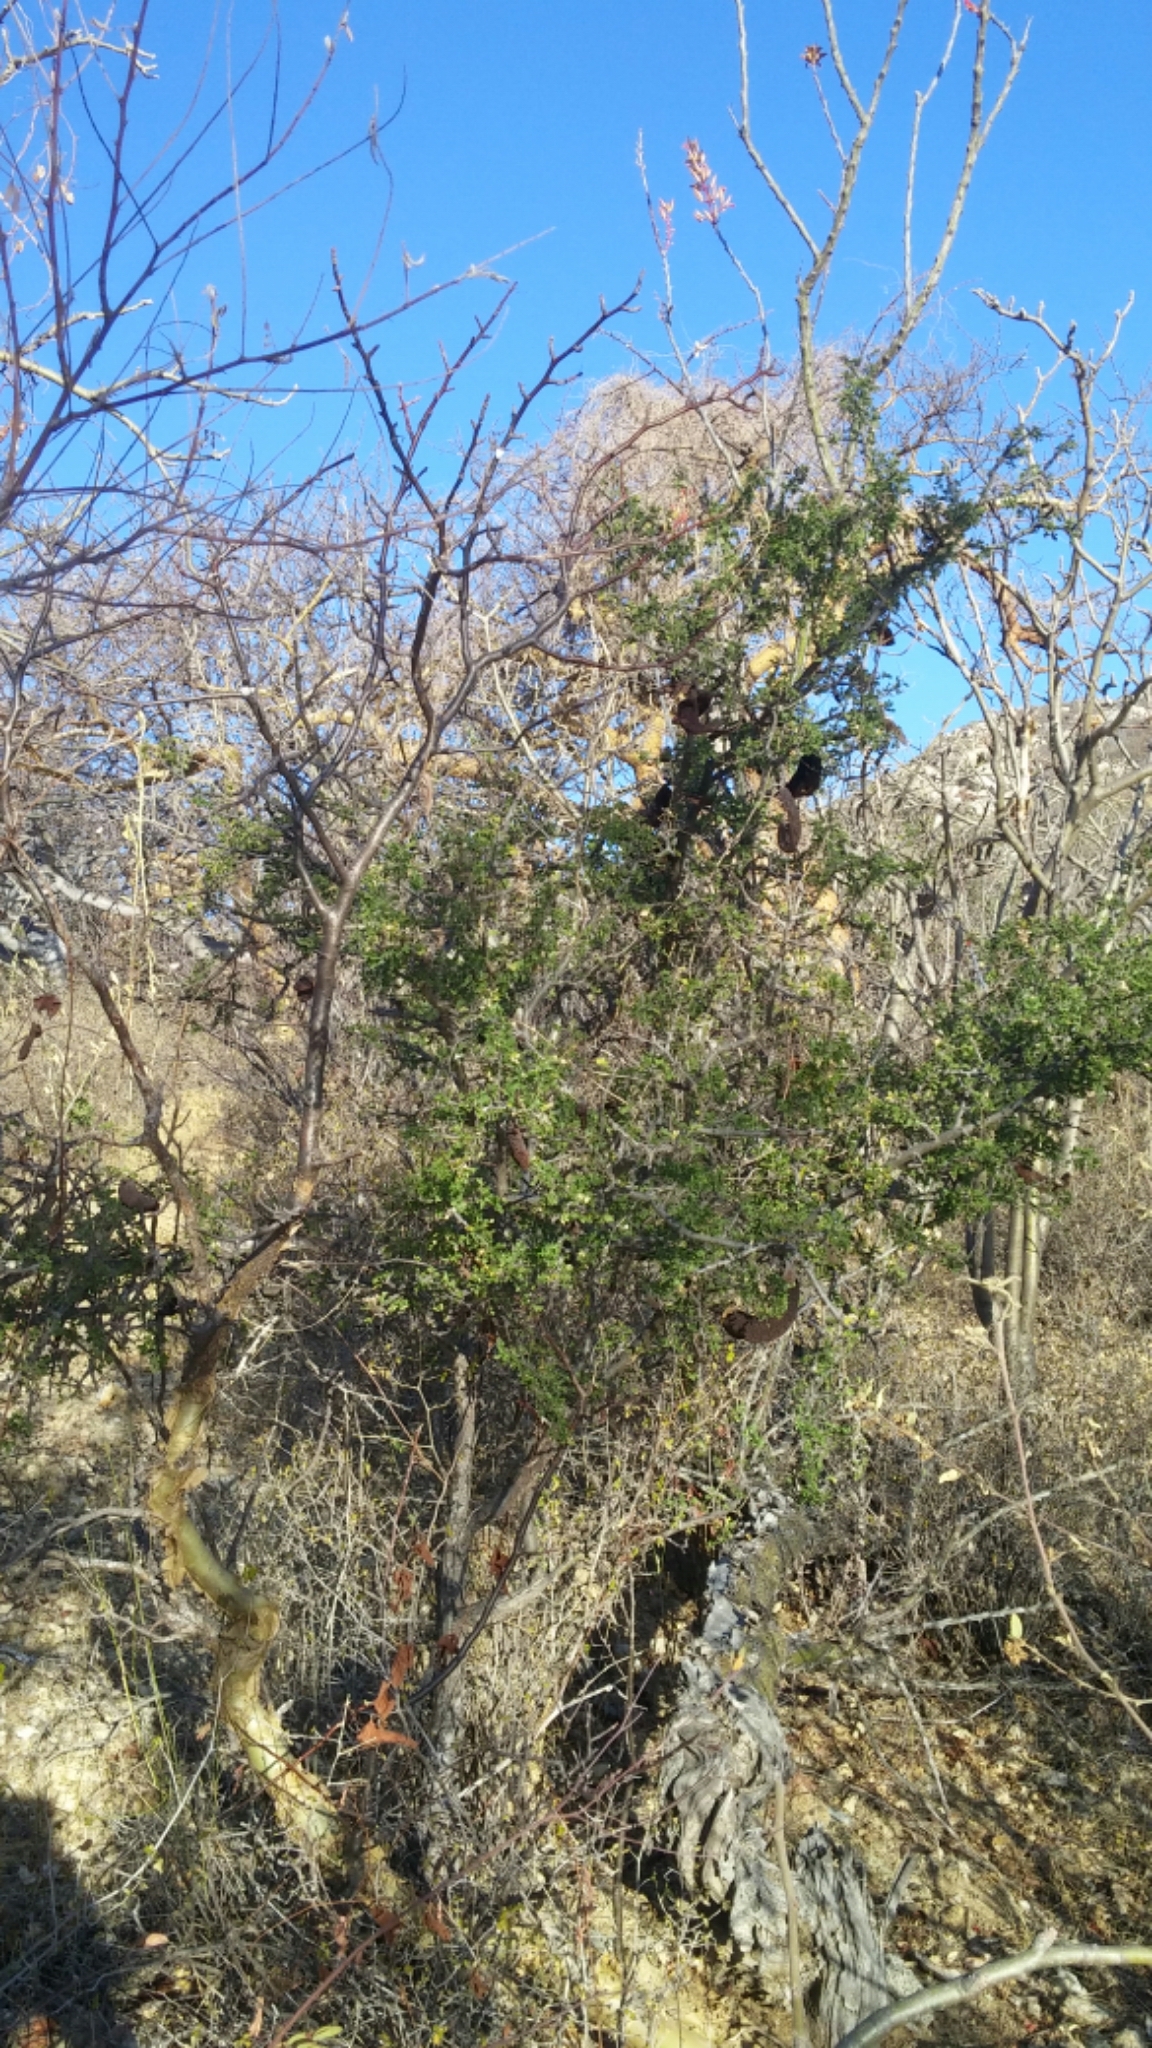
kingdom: Plantae
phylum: Tracheophyta
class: Magnoliopsida
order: Fabales
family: Fabaceae
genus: Ebenopsis
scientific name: Ebenopsis confinis
